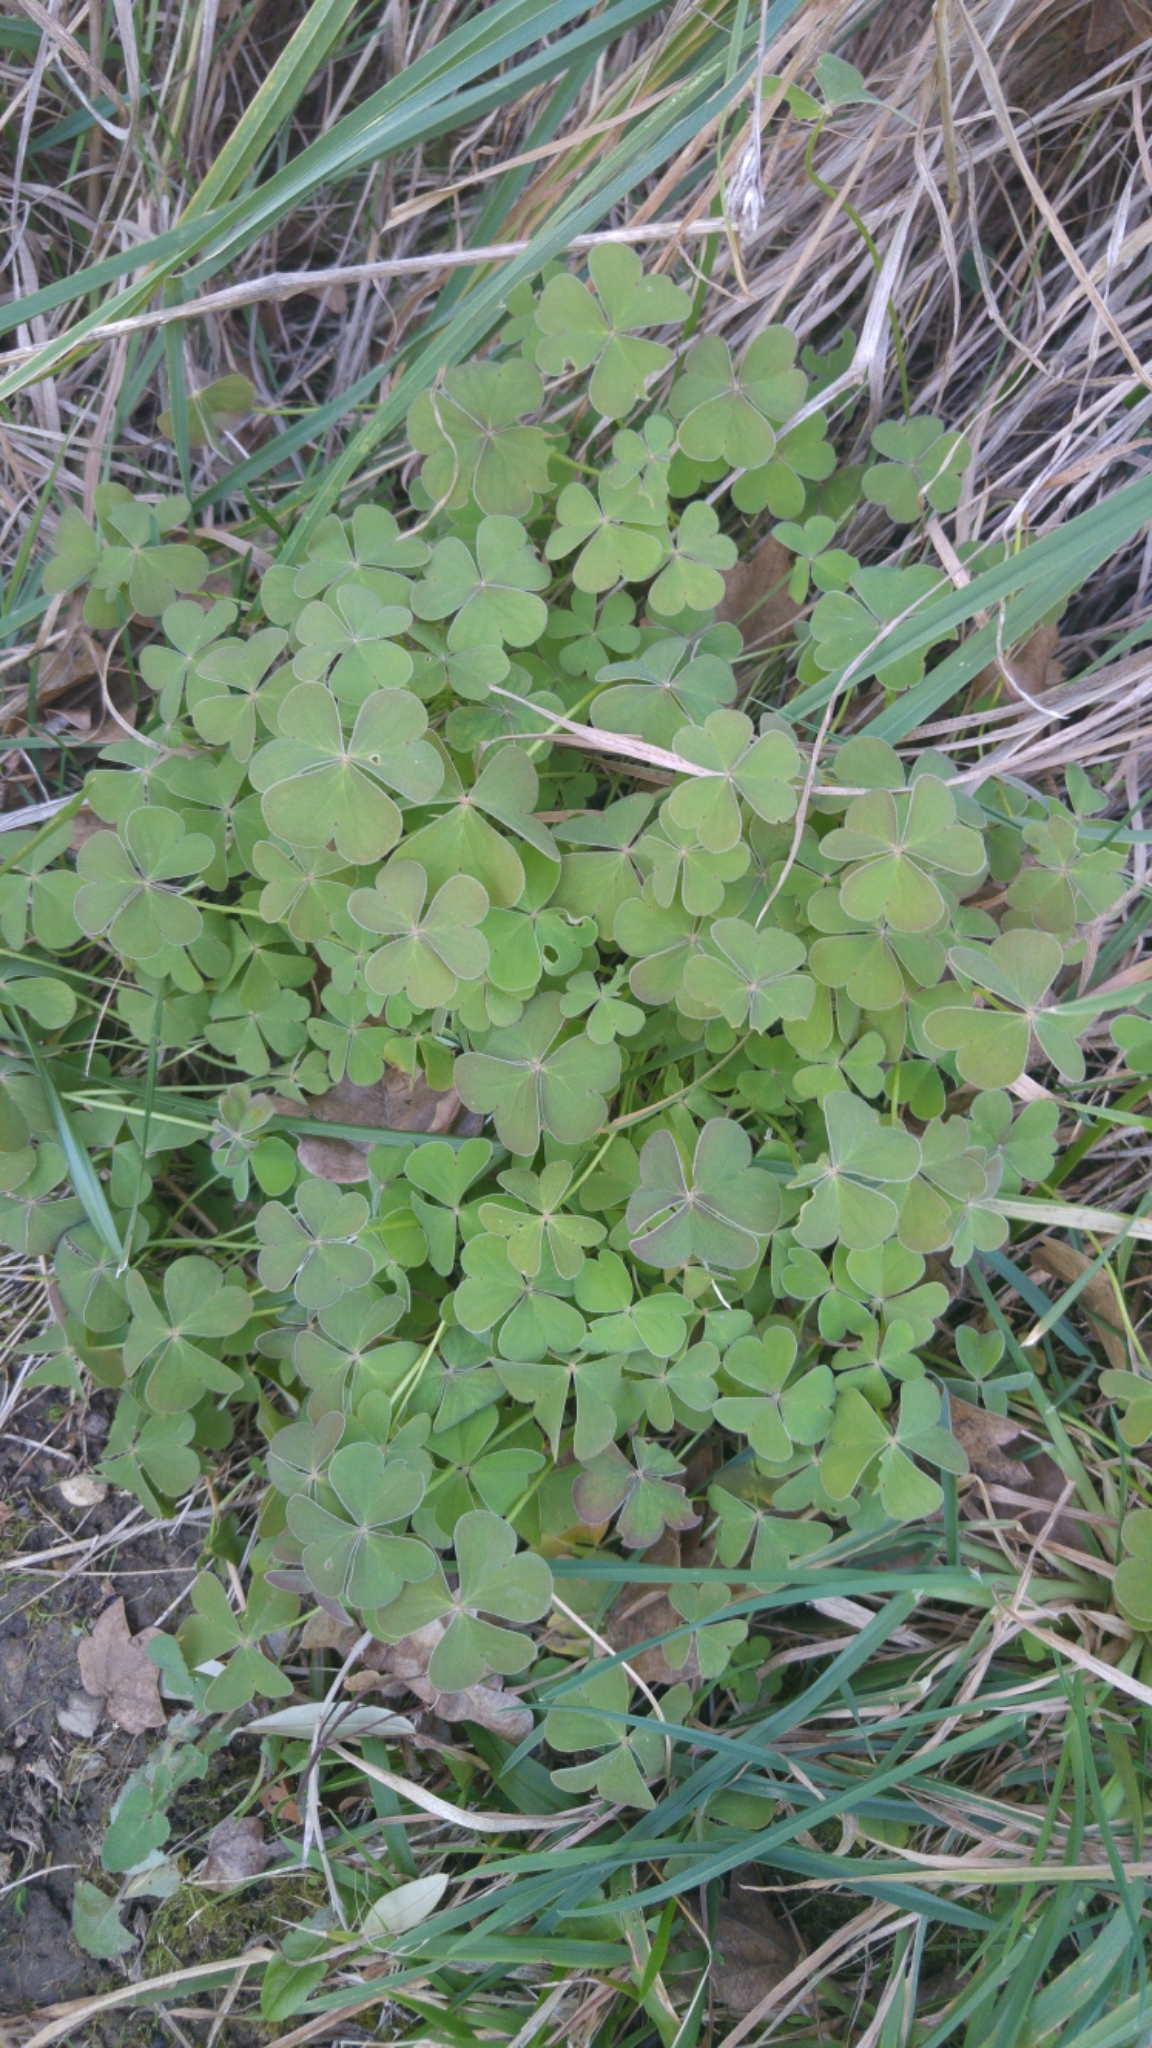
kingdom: Plantae
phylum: Tracheophyta
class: Magnoliopsida
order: Oxalidales
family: Oxalidaceae
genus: Oxalis
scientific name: Oxalis articulata
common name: Pink-sorrel
